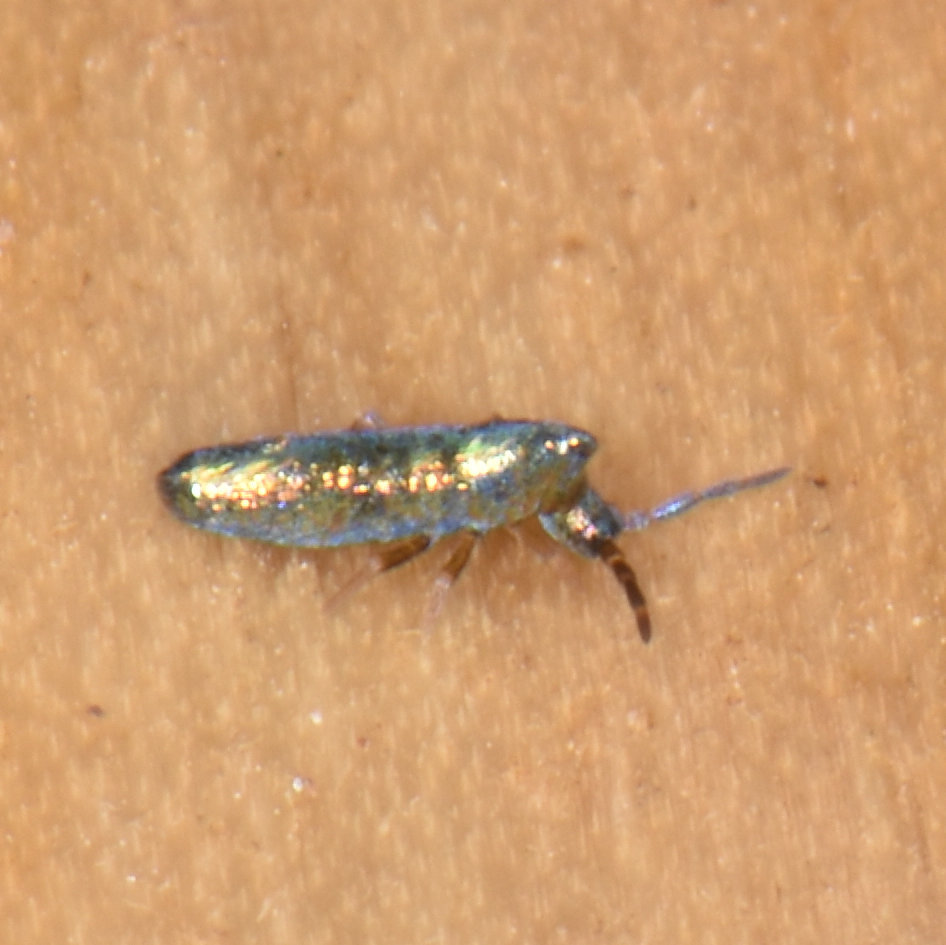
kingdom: Animalia
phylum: Arthropoda
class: Collembola
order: Entomobryomorpha
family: Entomobryidae
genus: Lepidocyrtus
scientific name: Lepidocyrtus paradoxus
